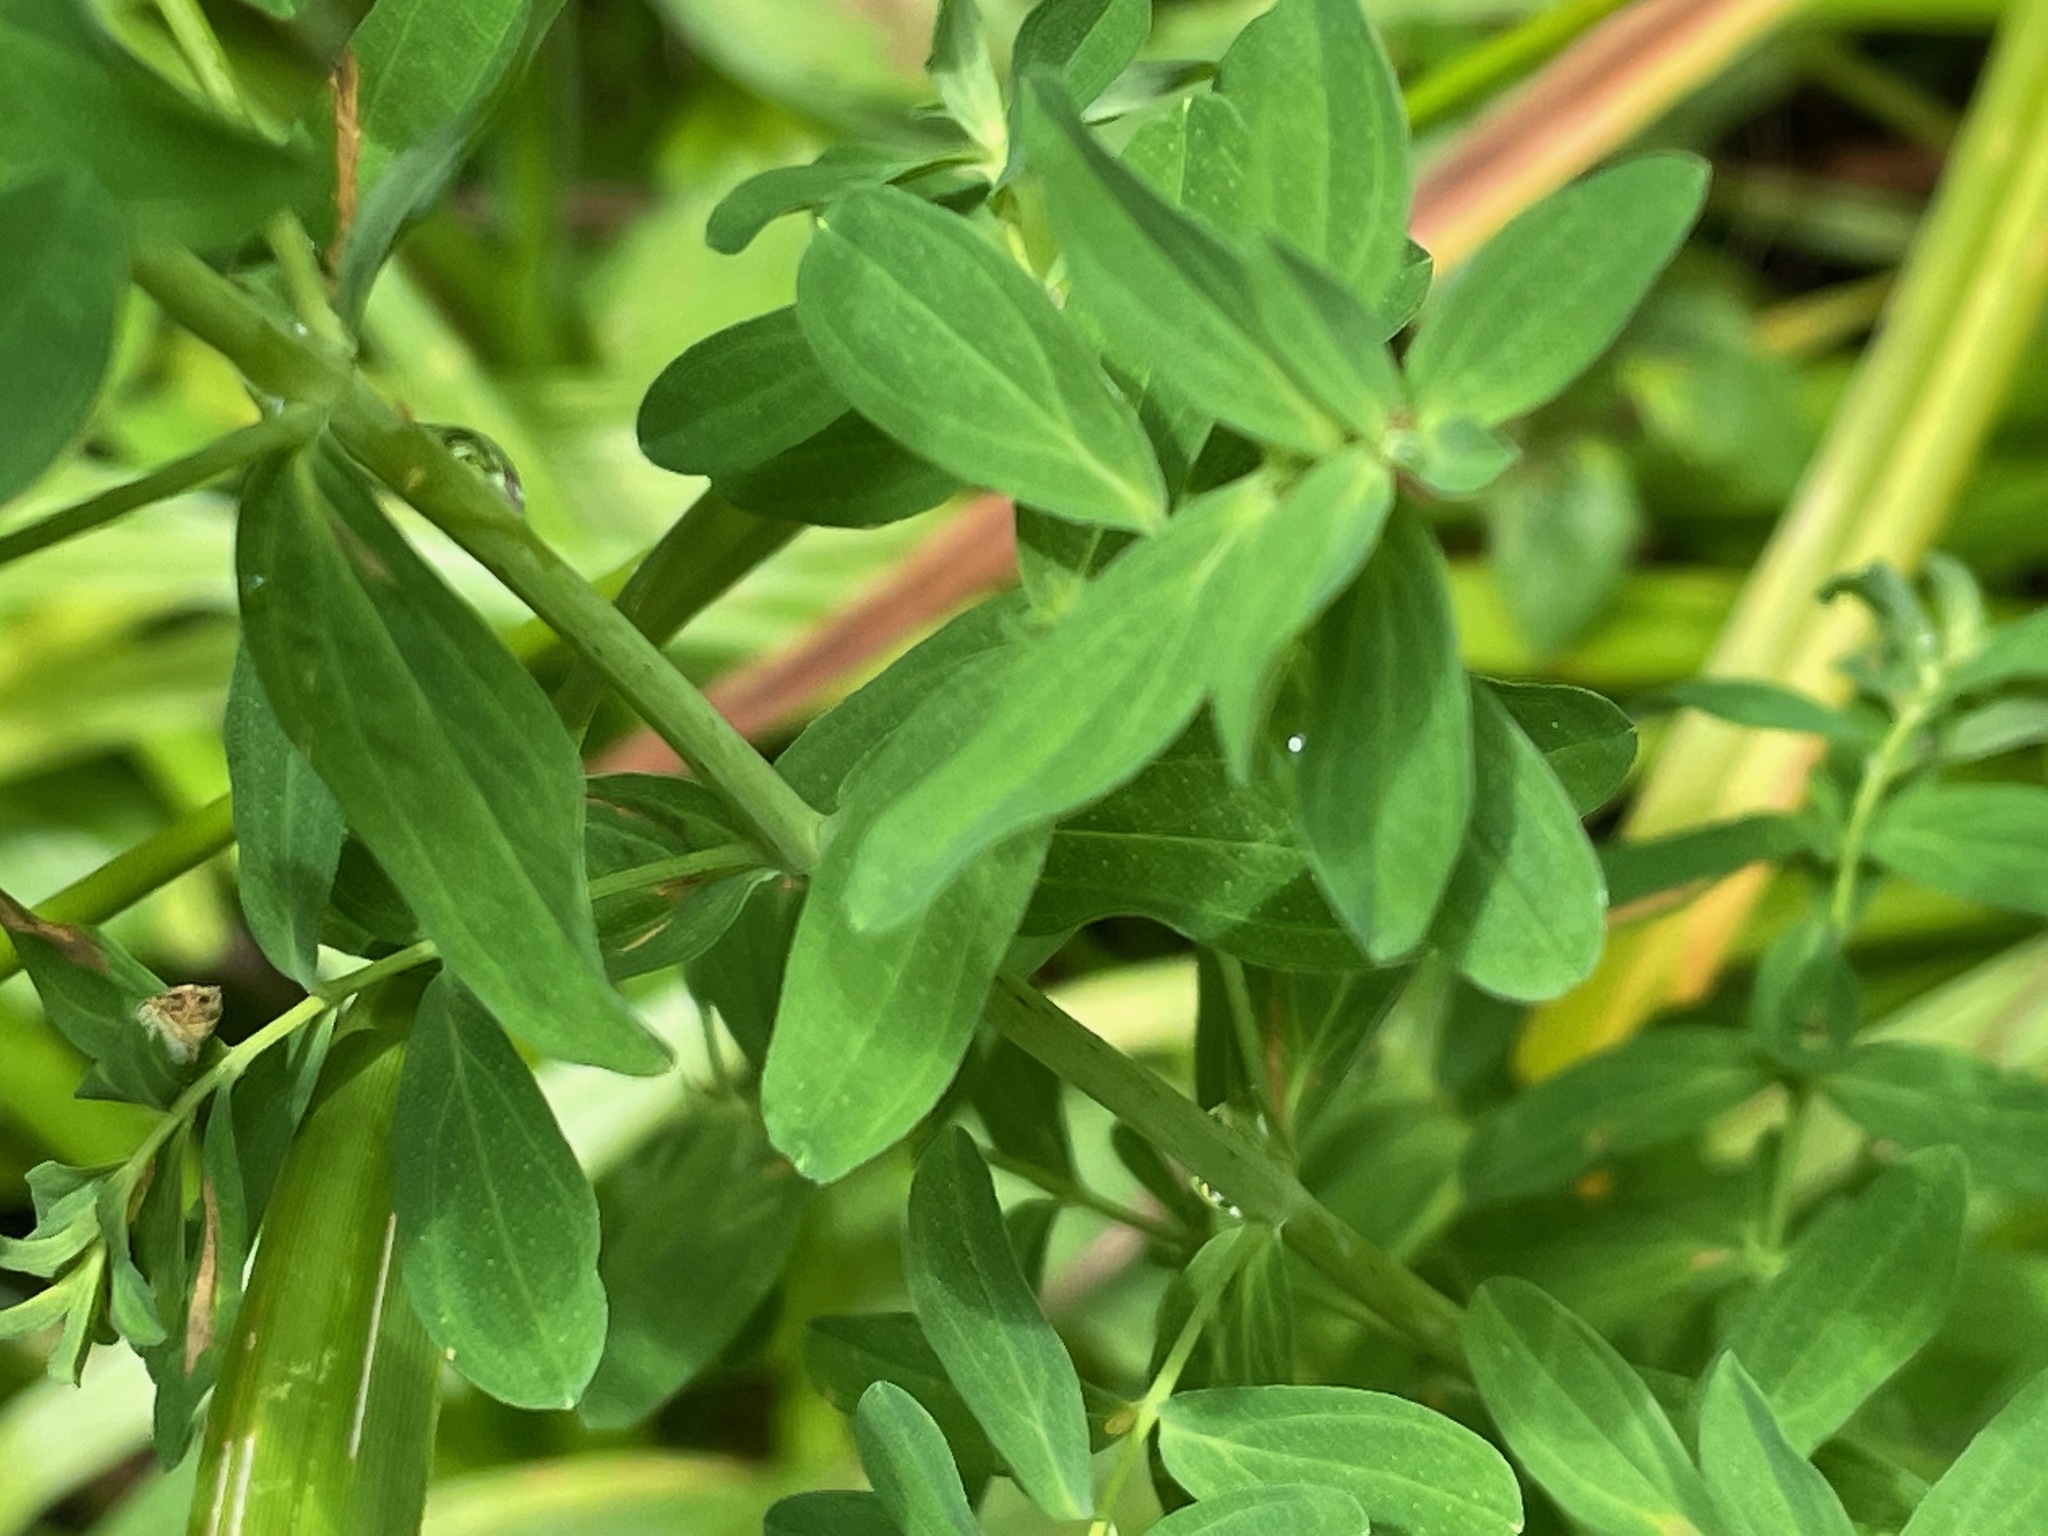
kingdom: Plantae
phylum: Tracheophyta
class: Magnoliopsida
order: Malpighiales
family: Hypericaceae
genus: Hypericum
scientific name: Hypericum perforatum
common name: Common st. johnswort
